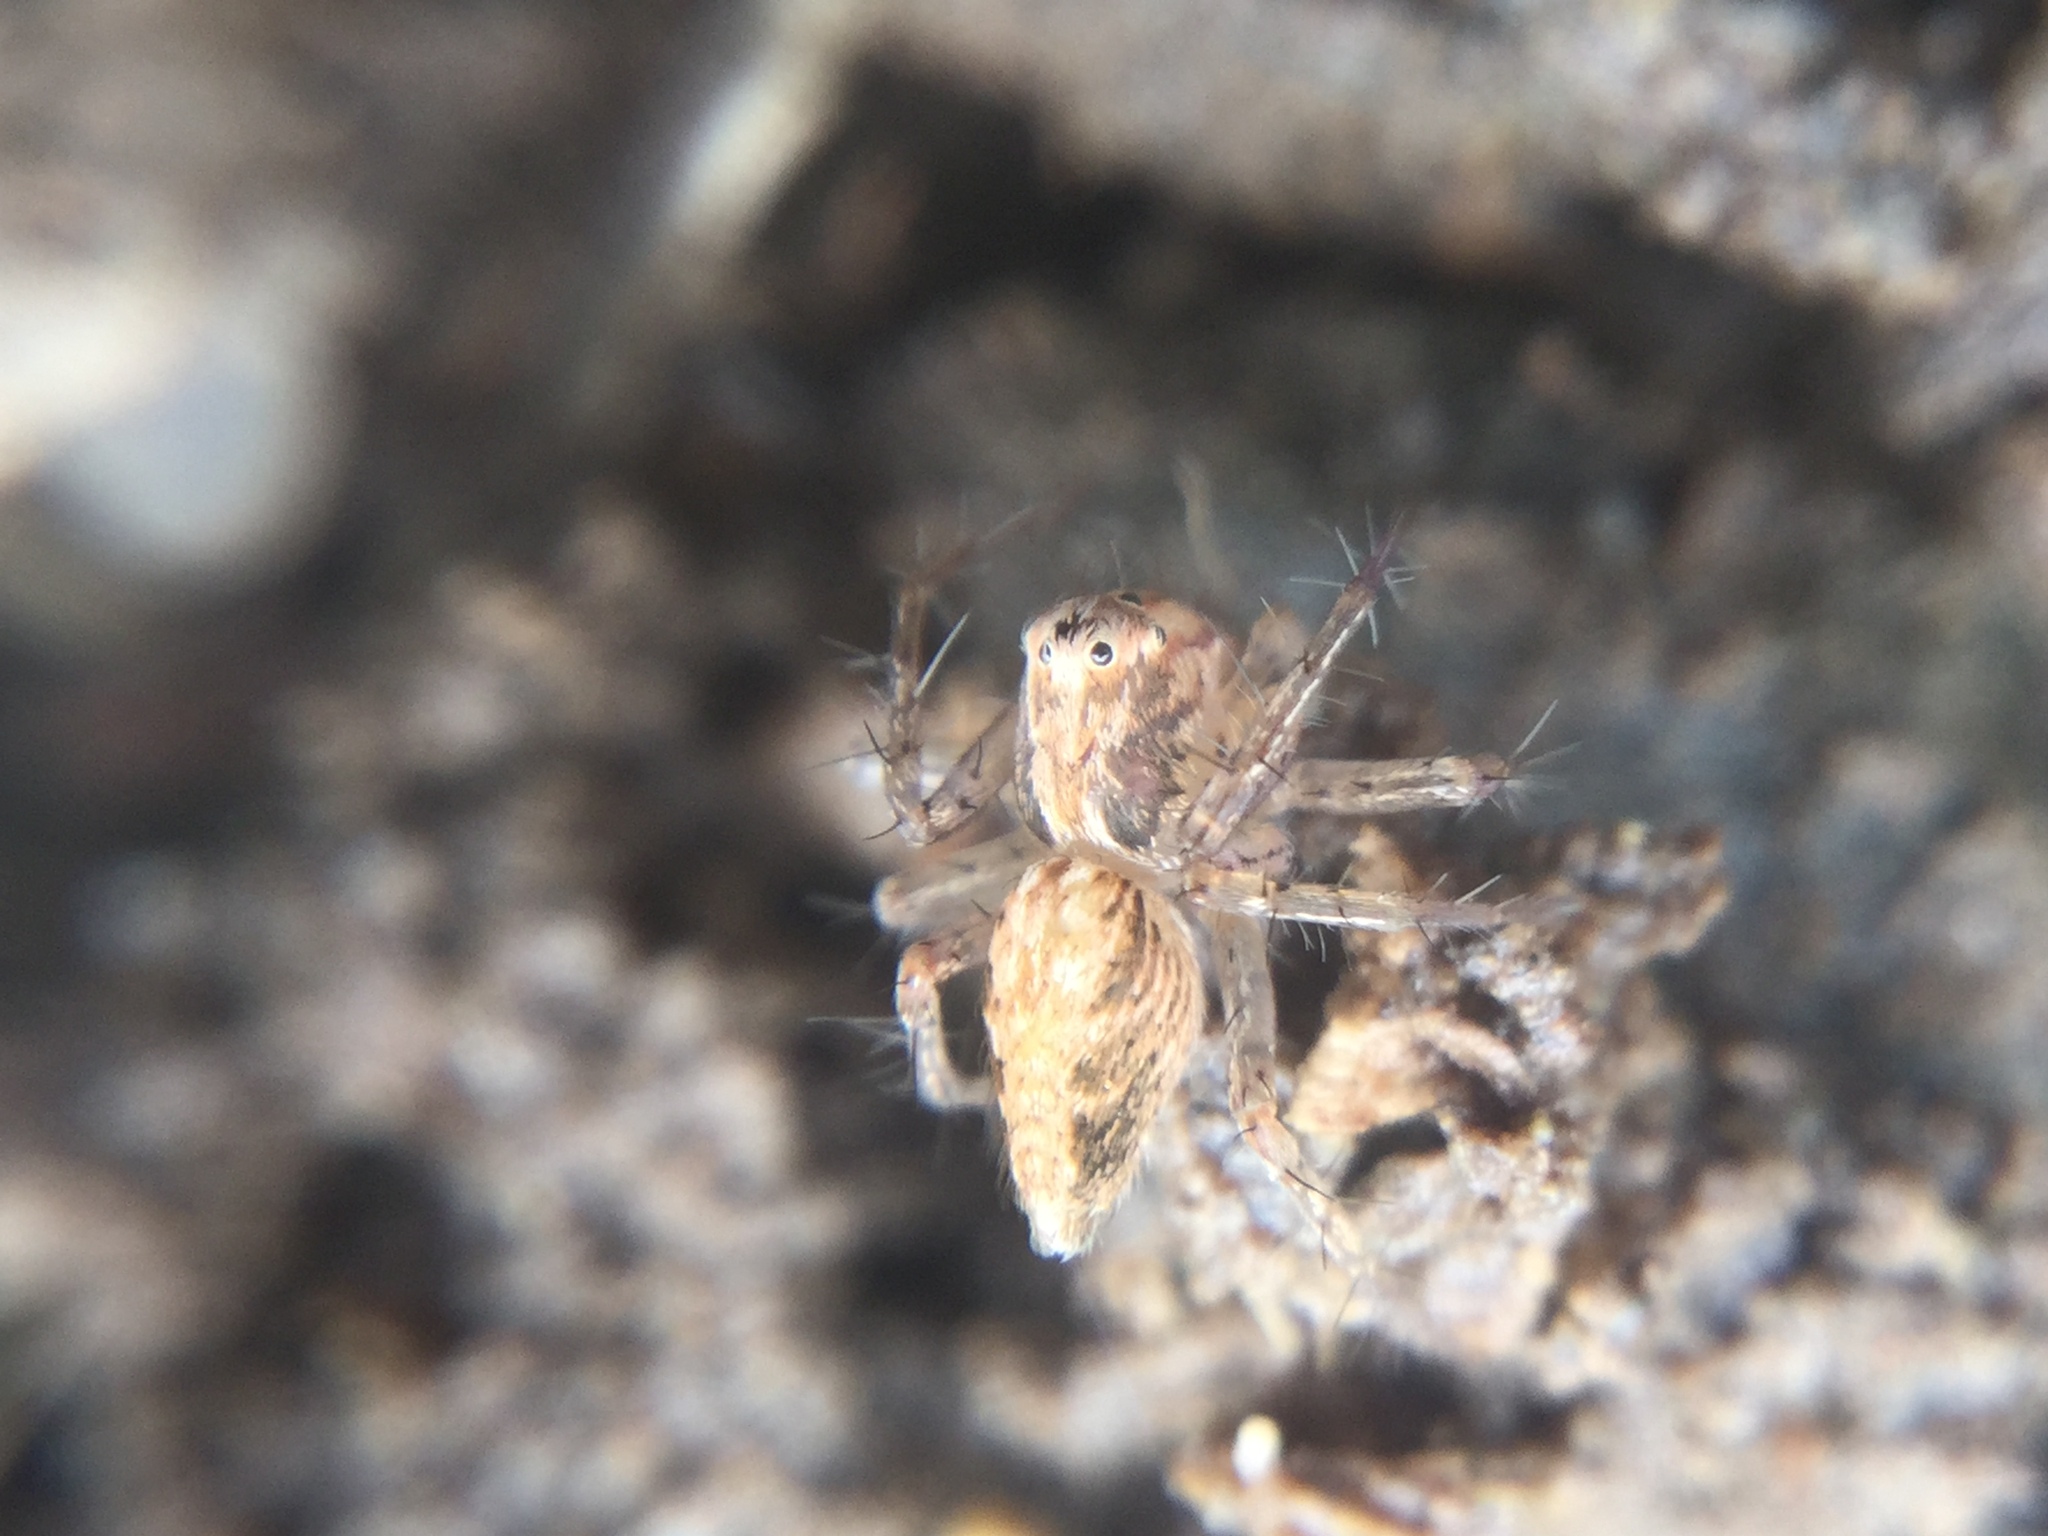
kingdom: Animalia
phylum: Arthropoda
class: Arachnida
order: Araneae
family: Oxyopidae
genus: Oxyopes
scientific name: Oxyopes aglossus
